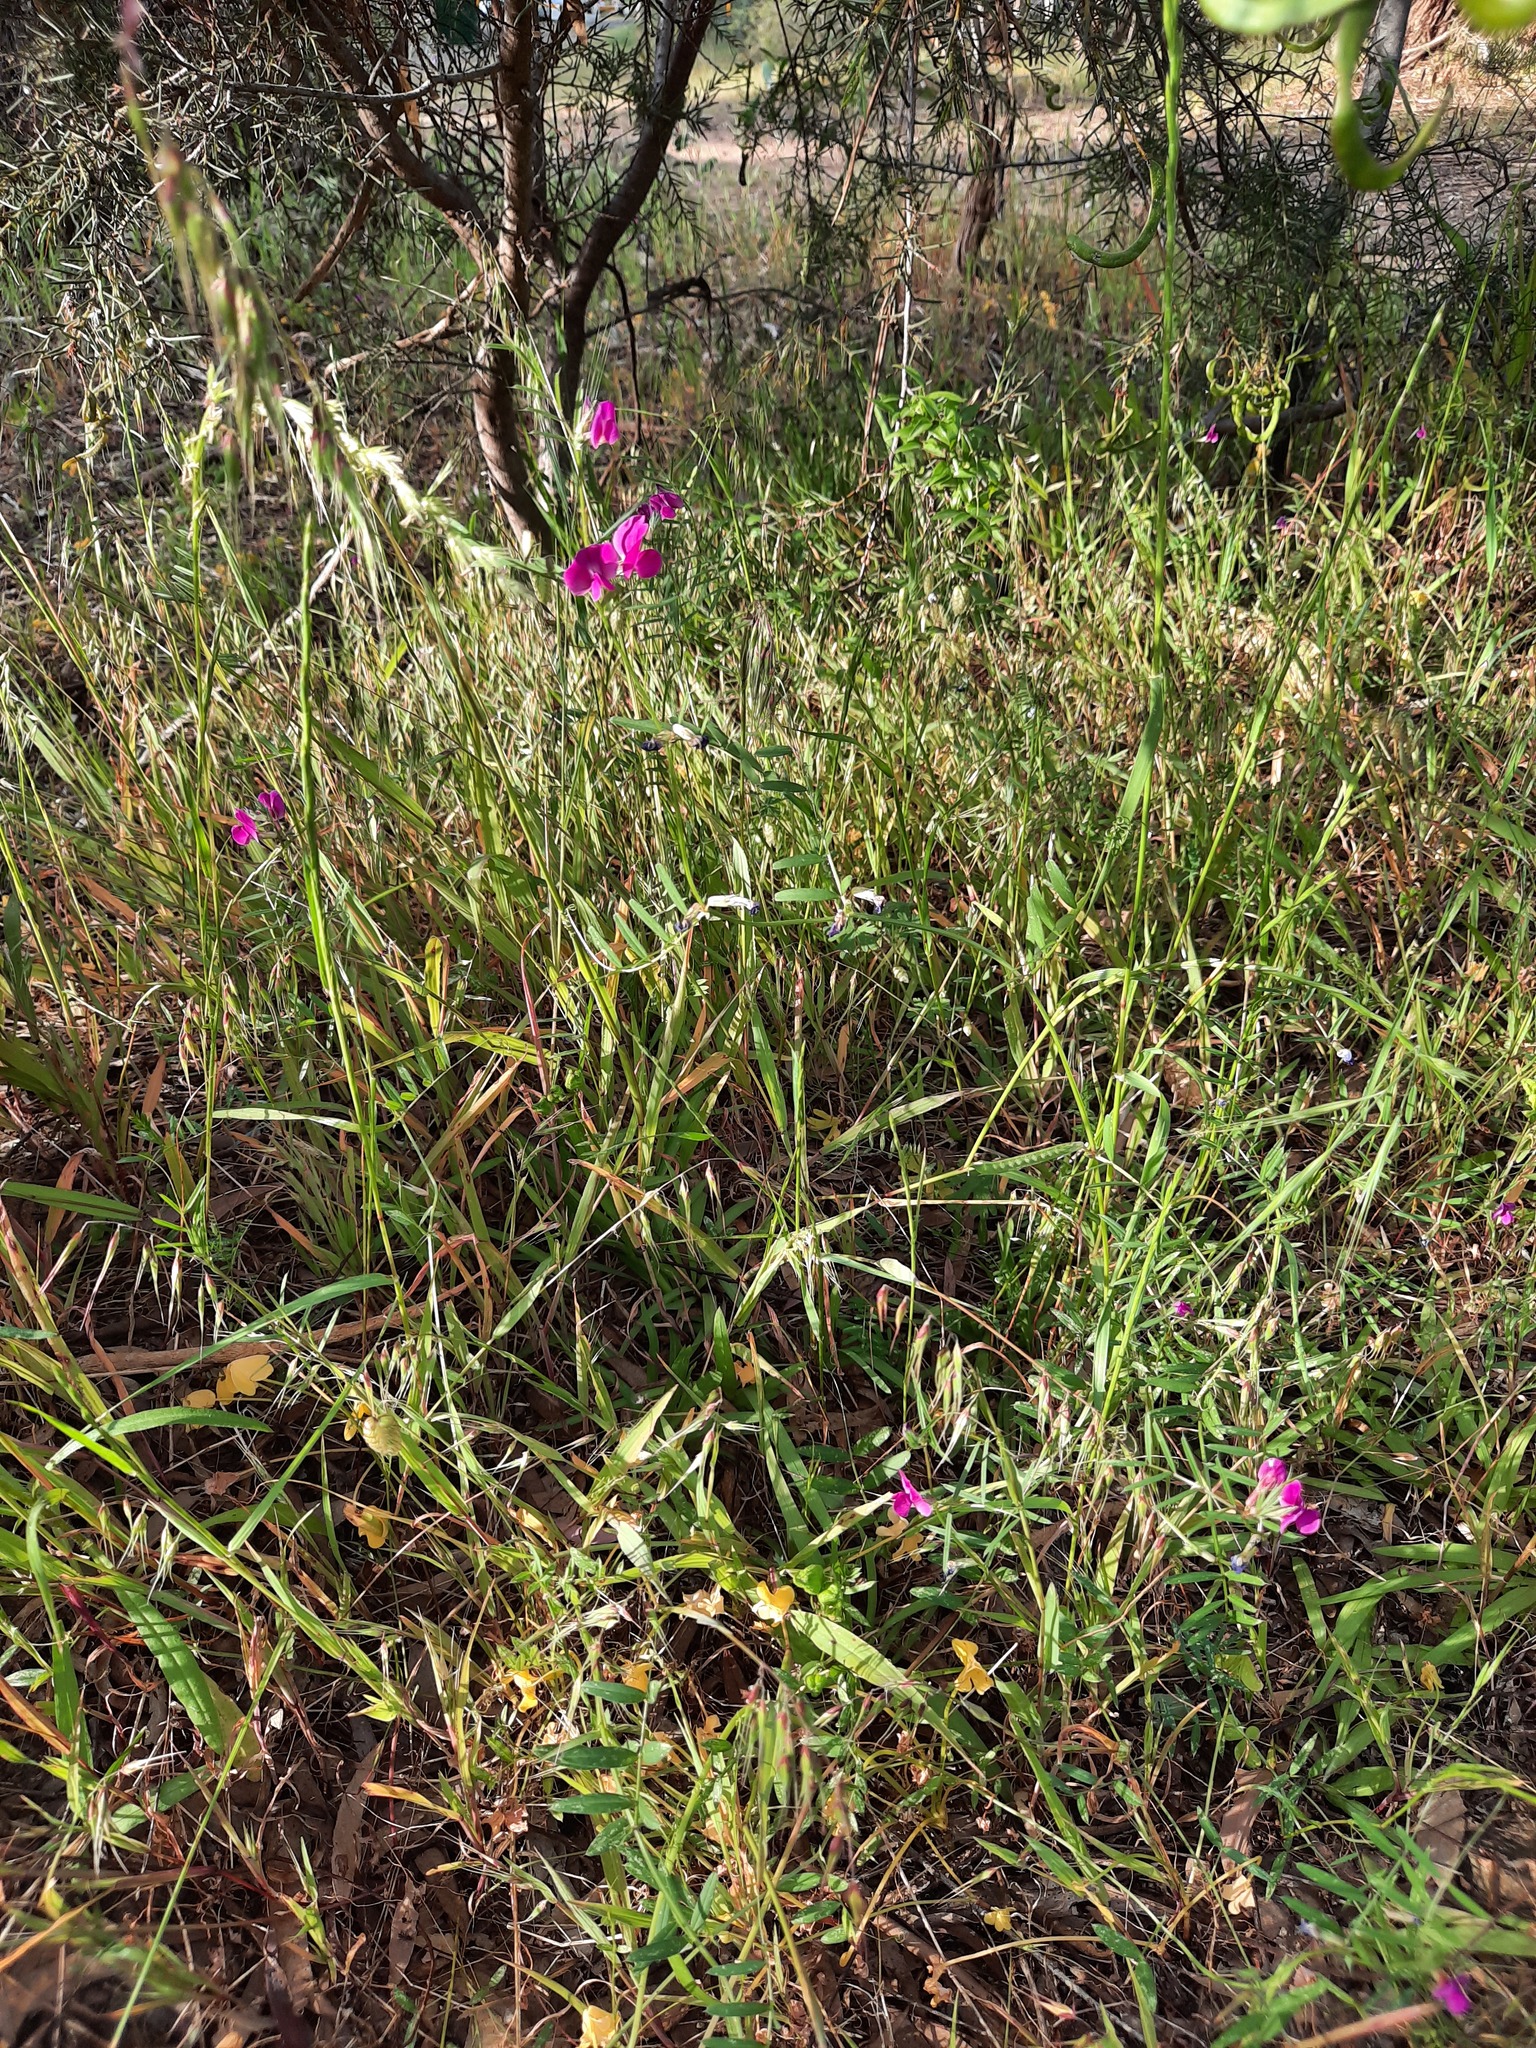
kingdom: Plantae
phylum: Tracheophyta
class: Magnoliopsida
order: Fabales
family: Fabaceae
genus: Vicia
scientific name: Vicia sativa
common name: Garden vetch
